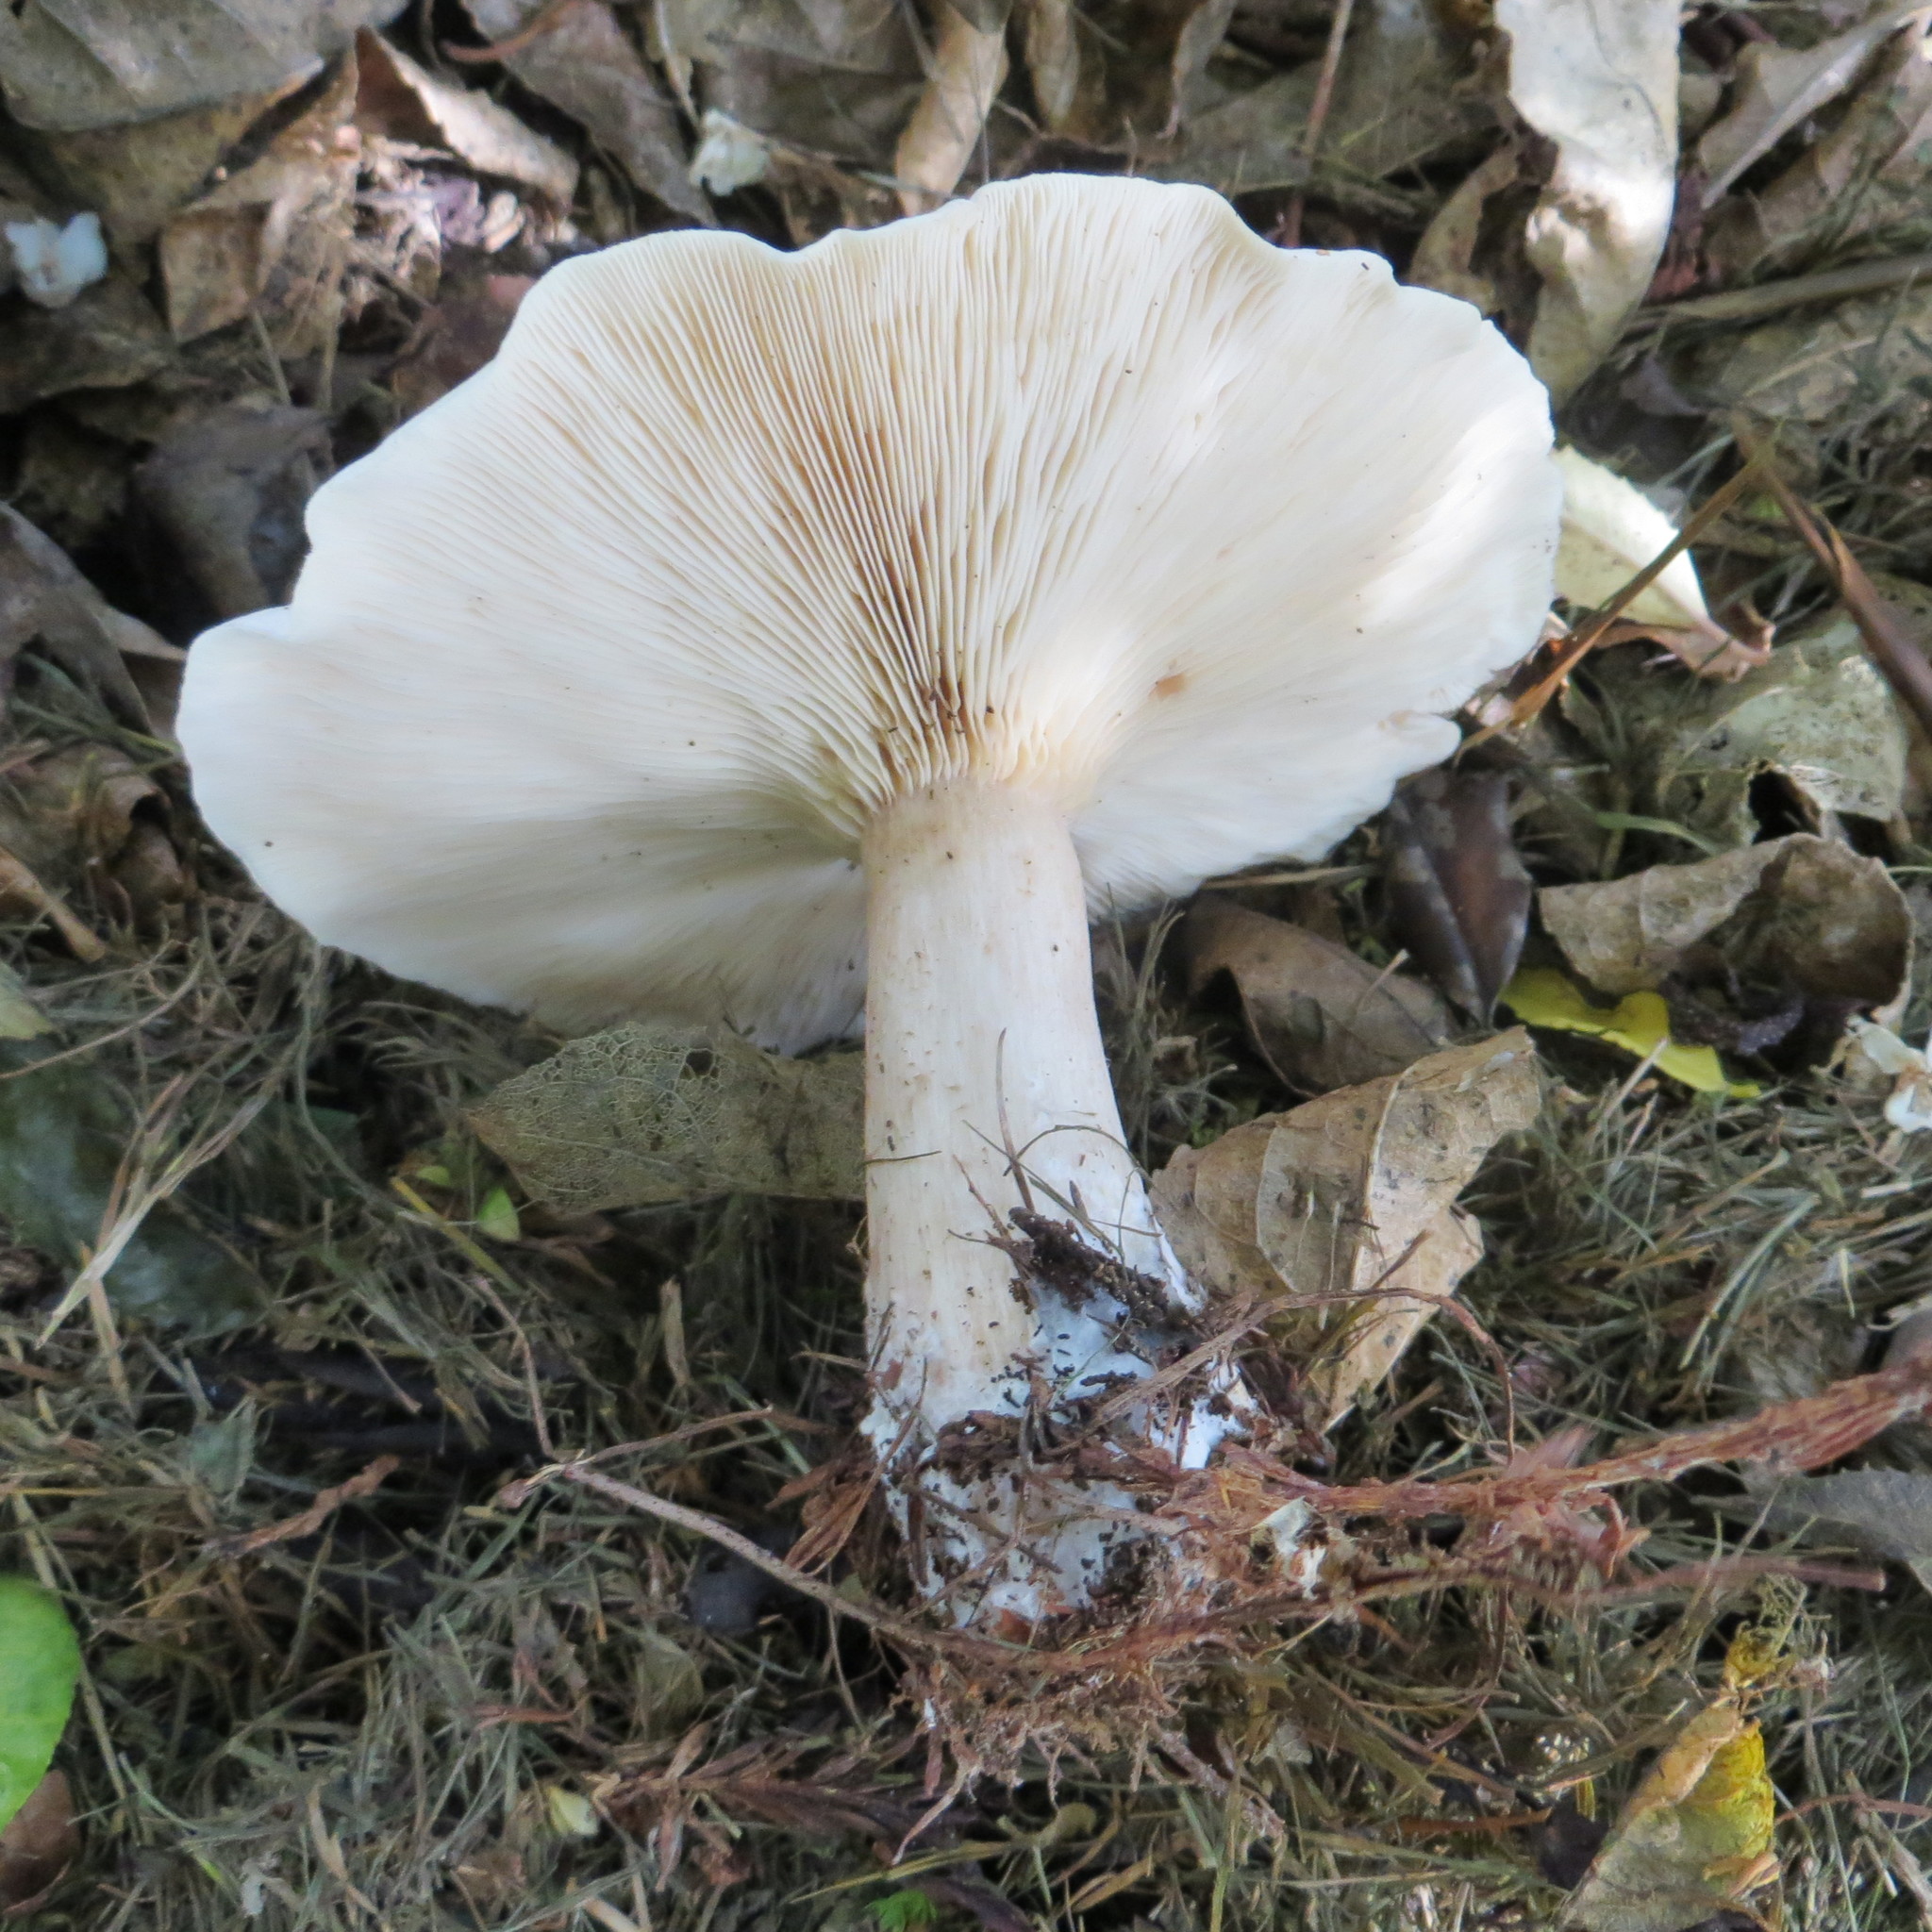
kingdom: Fungi
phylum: Basidiomycota
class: Agaricomycetes
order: Agaricales
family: Tricholomataceae
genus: Clitocybe
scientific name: Clitocybe nebularis
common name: Clouded agaric
